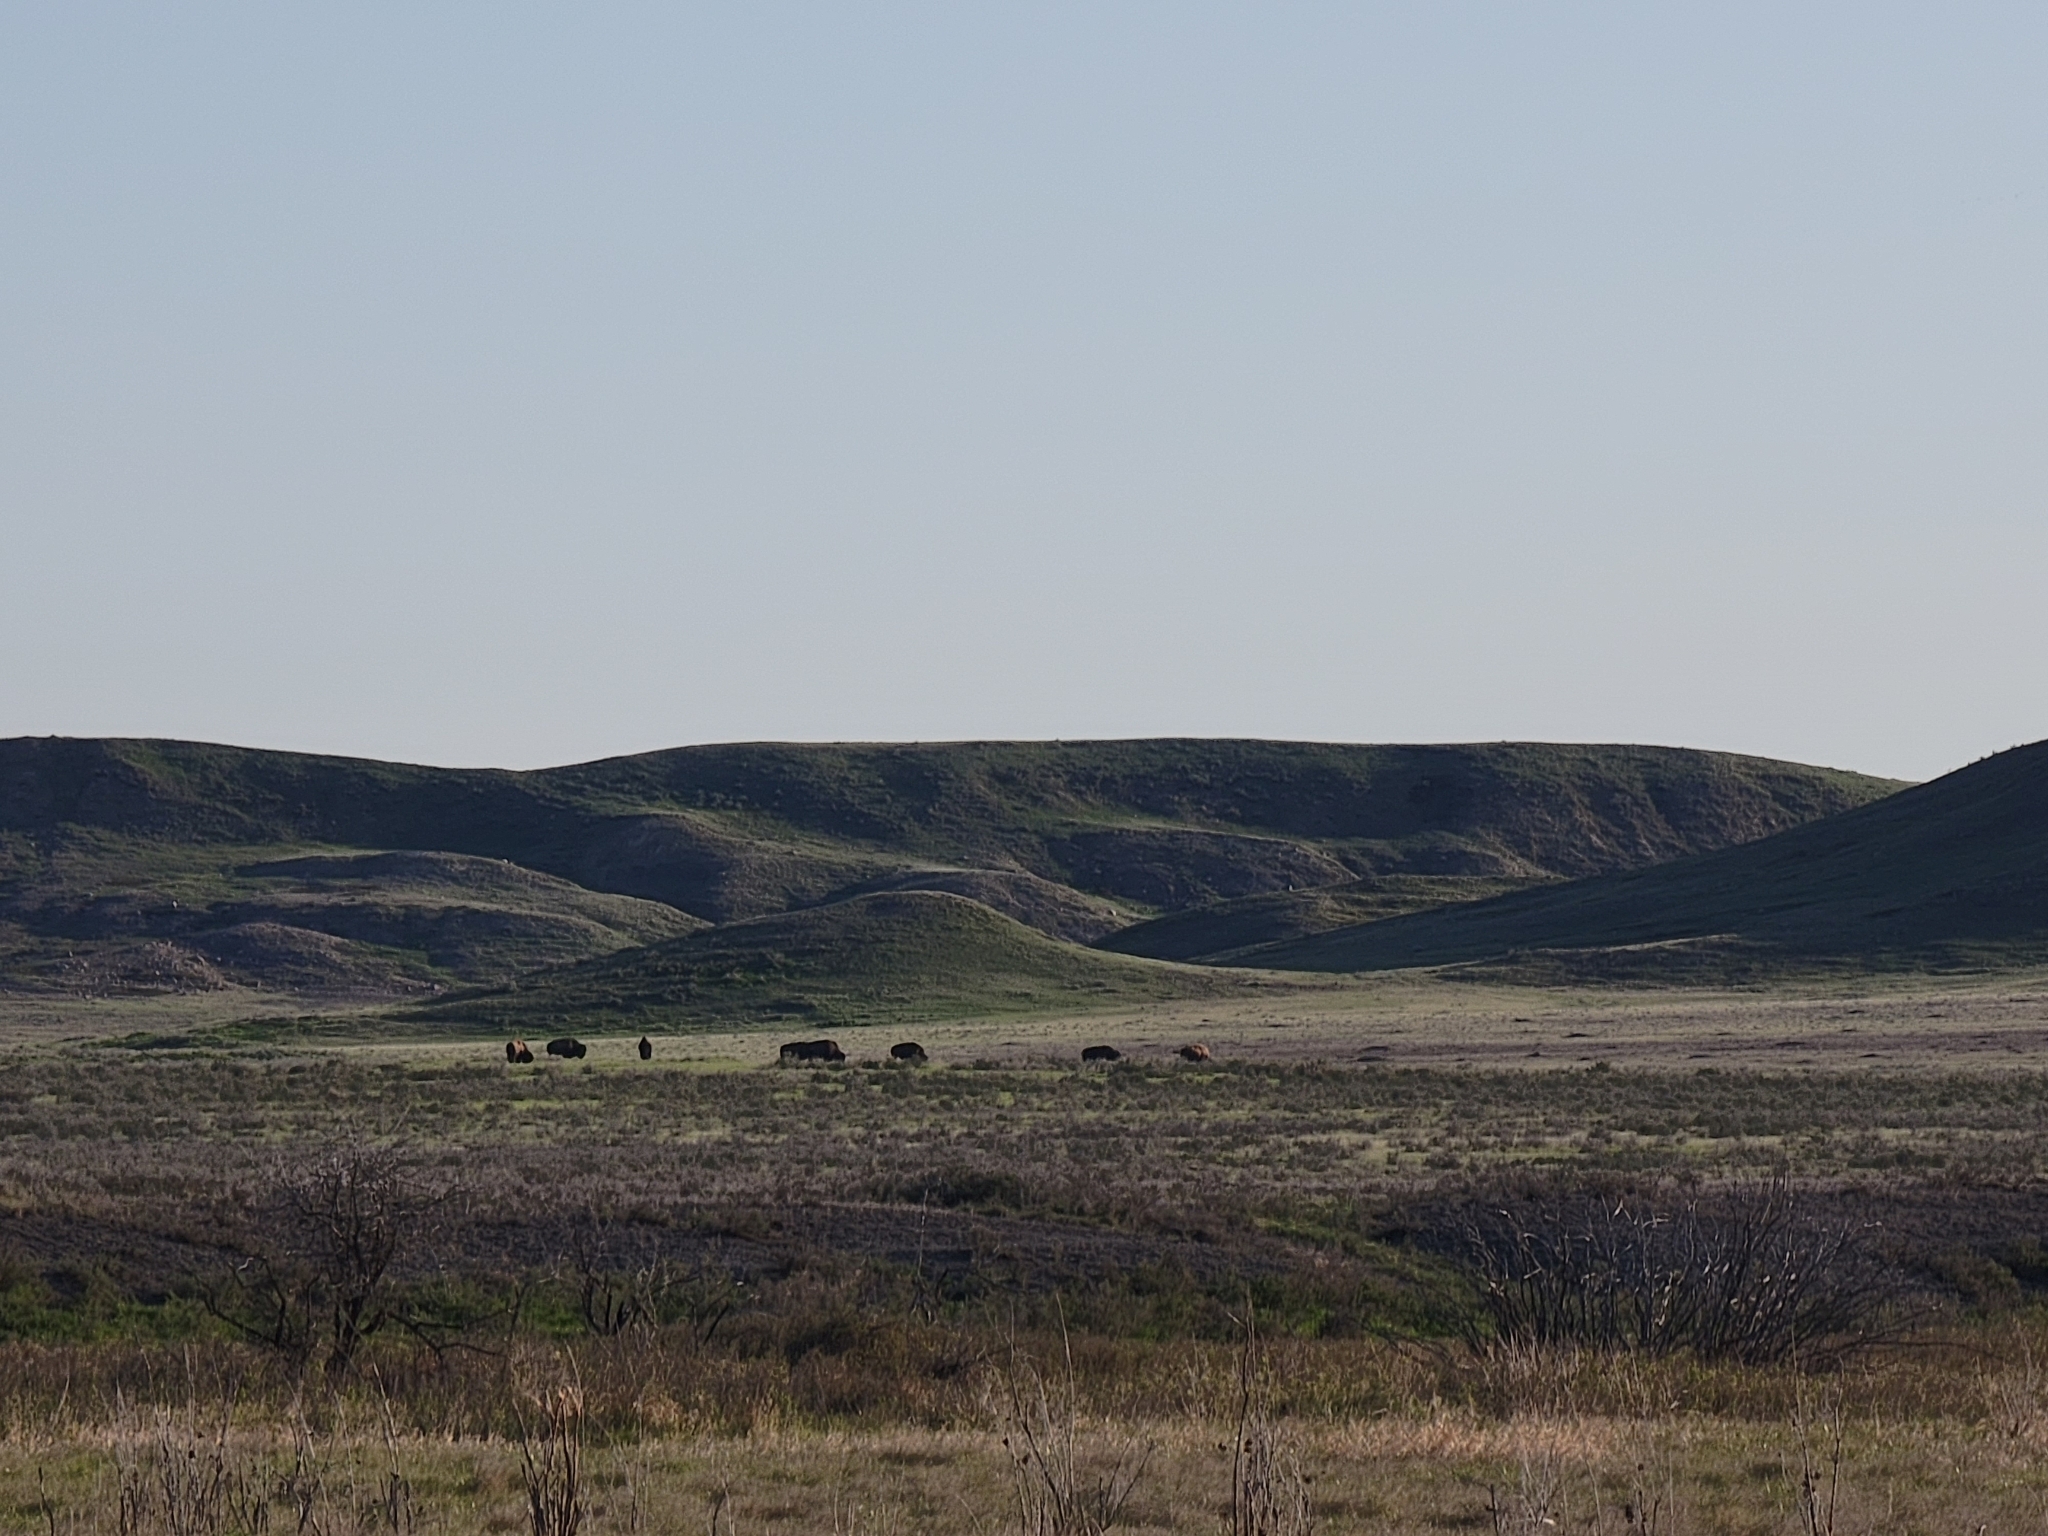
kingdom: Animalia
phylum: Chordata
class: Mammalia
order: Artiodactyla
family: Bovidae
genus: Bison
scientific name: Bison bison
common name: American bison
